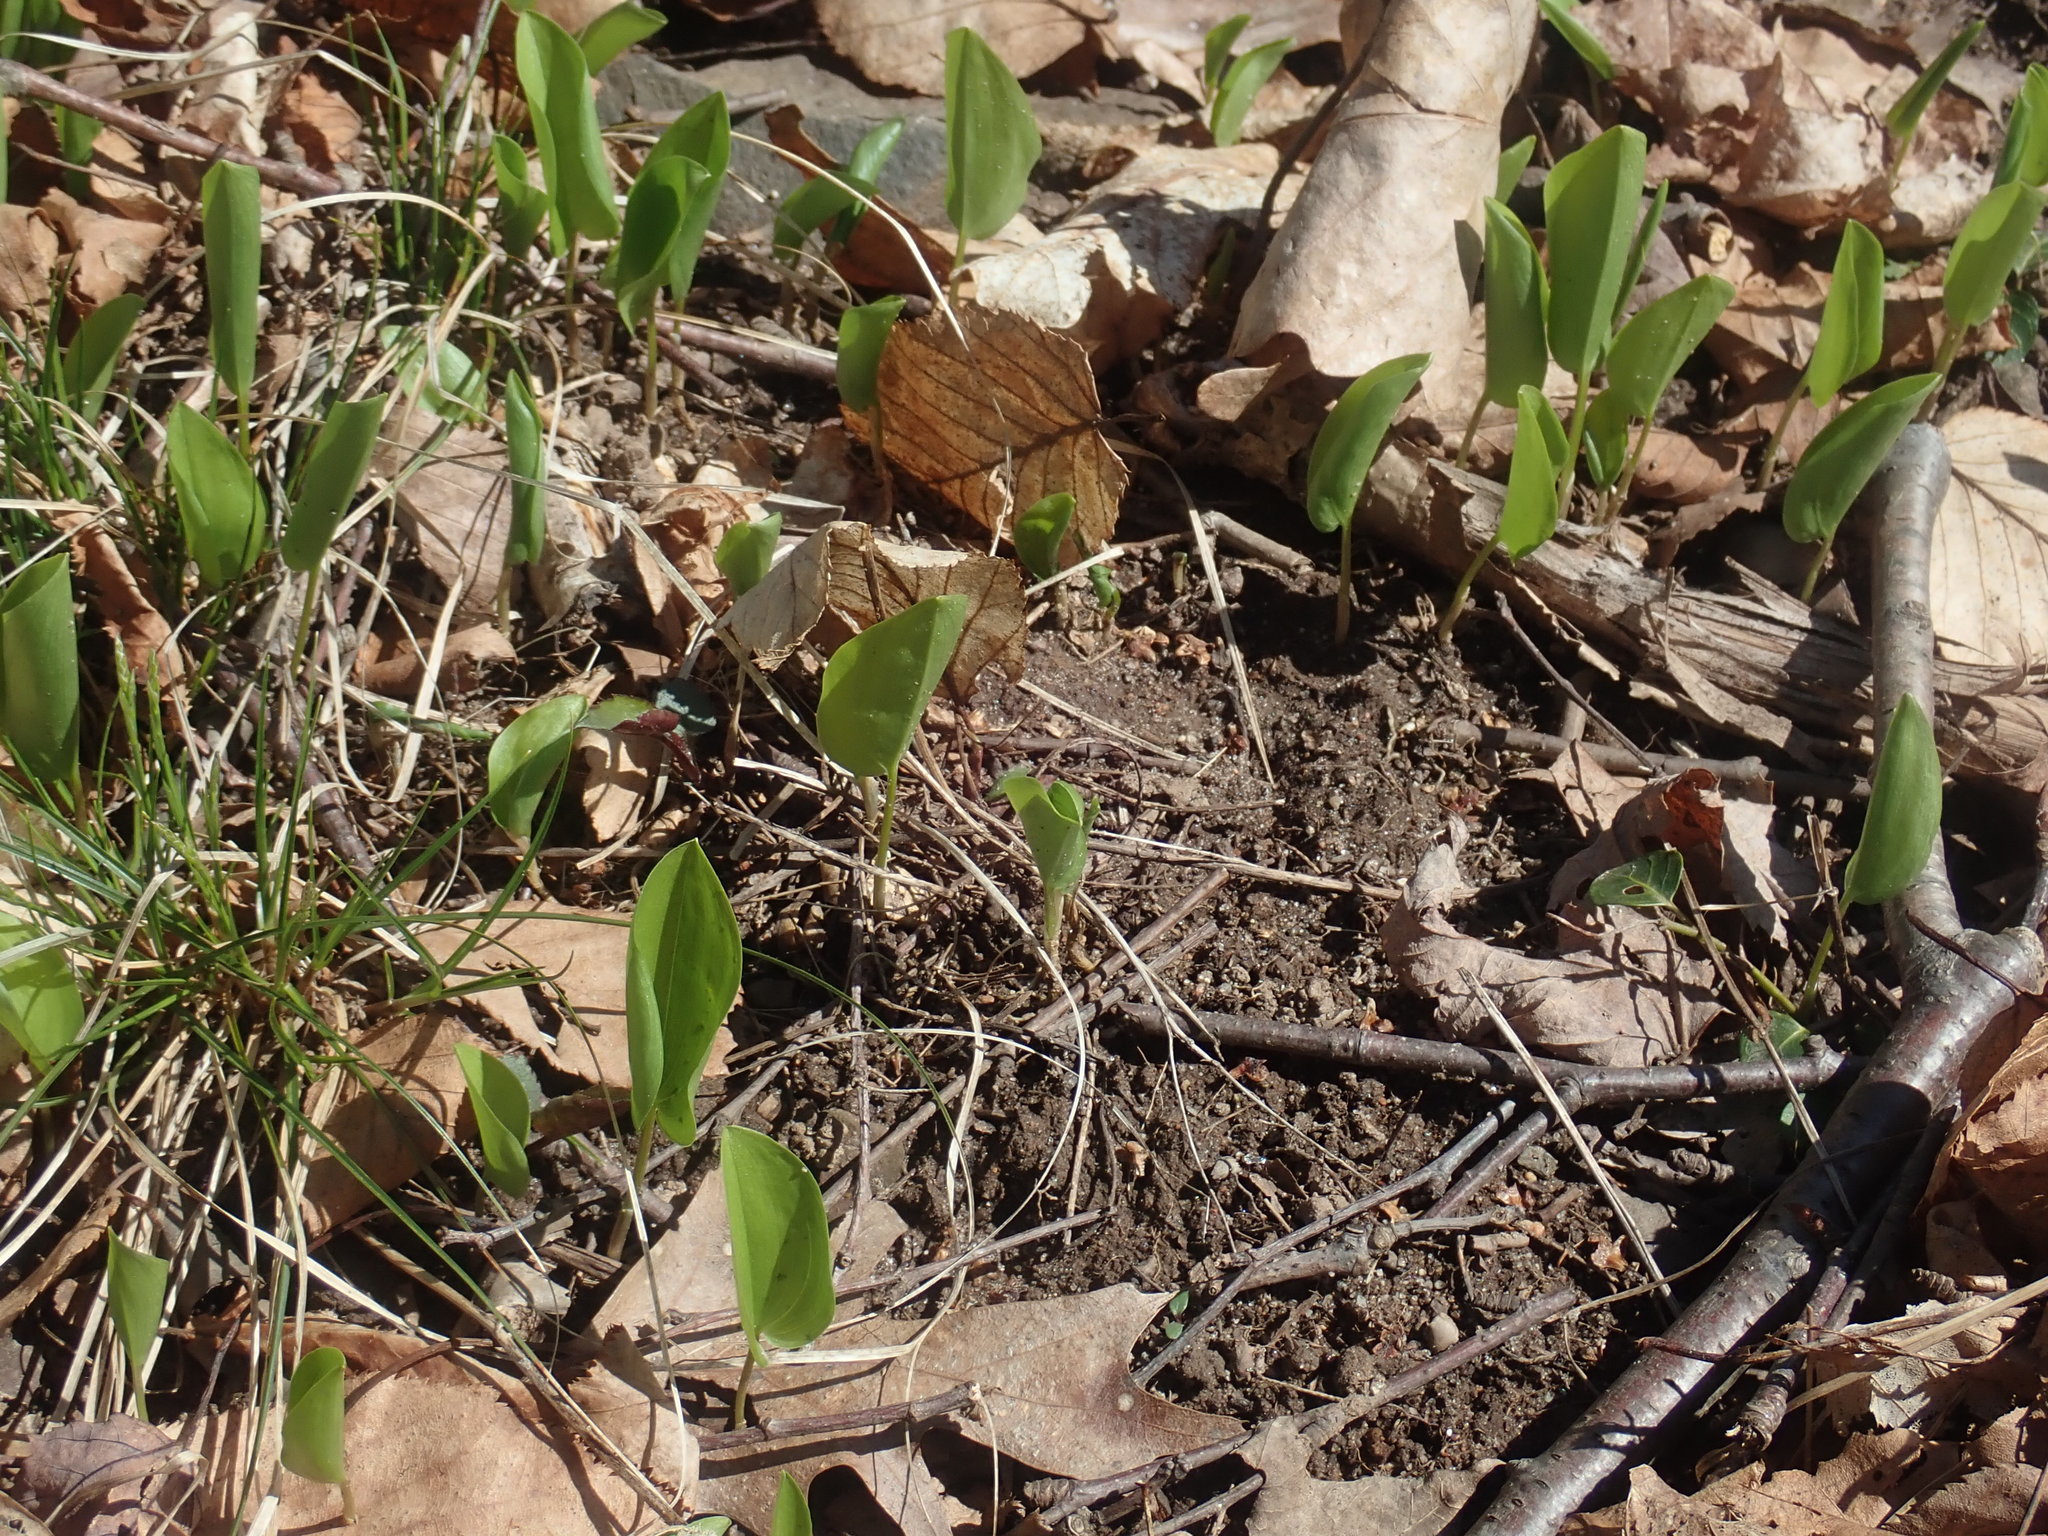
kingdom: Plantae
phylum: Tracheophyta
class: Liliopsida
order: Asparagales
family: Asparagaceae
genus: Maianthemum
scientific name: Maianthemum canadense
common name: False lily-of-the-valley
